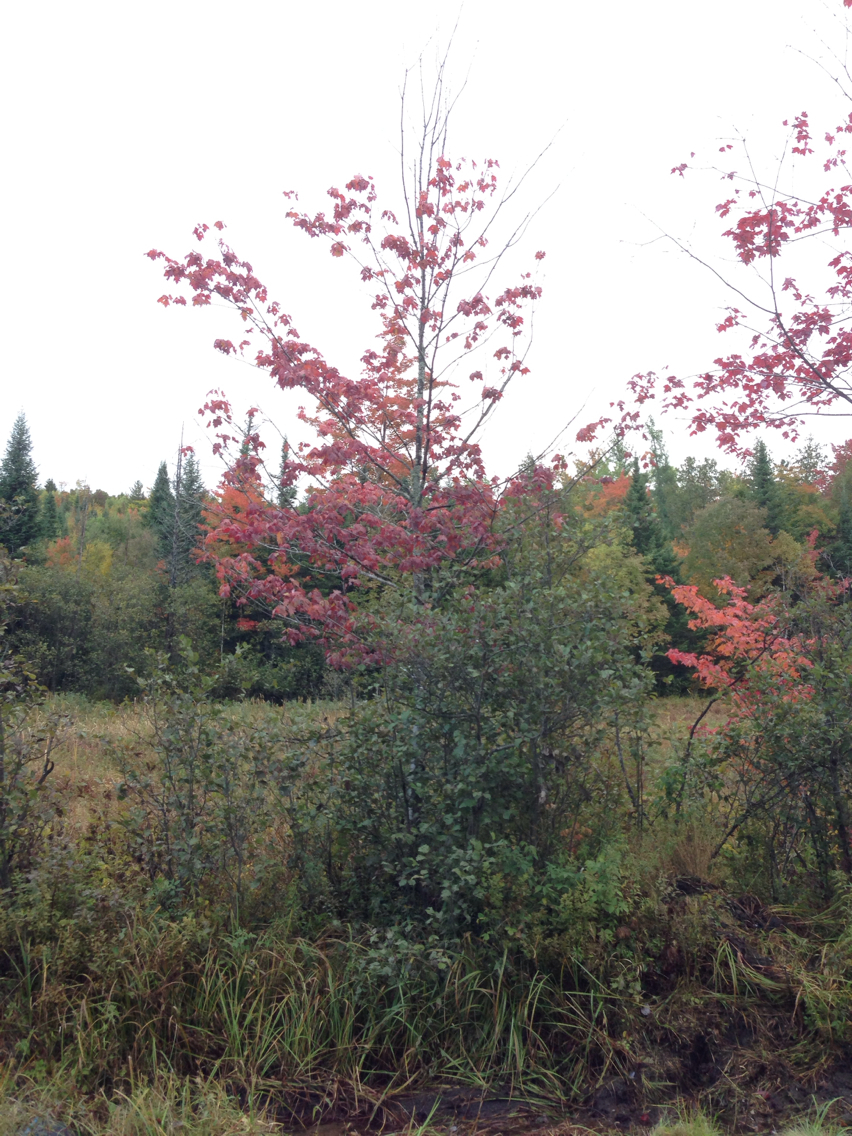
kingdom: Plantae
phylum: Tracheophyta
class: Magnoliopsida
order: Sapindales
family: Sapindaceae
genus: Acer
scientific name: Acer rubrum
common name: Red maple
